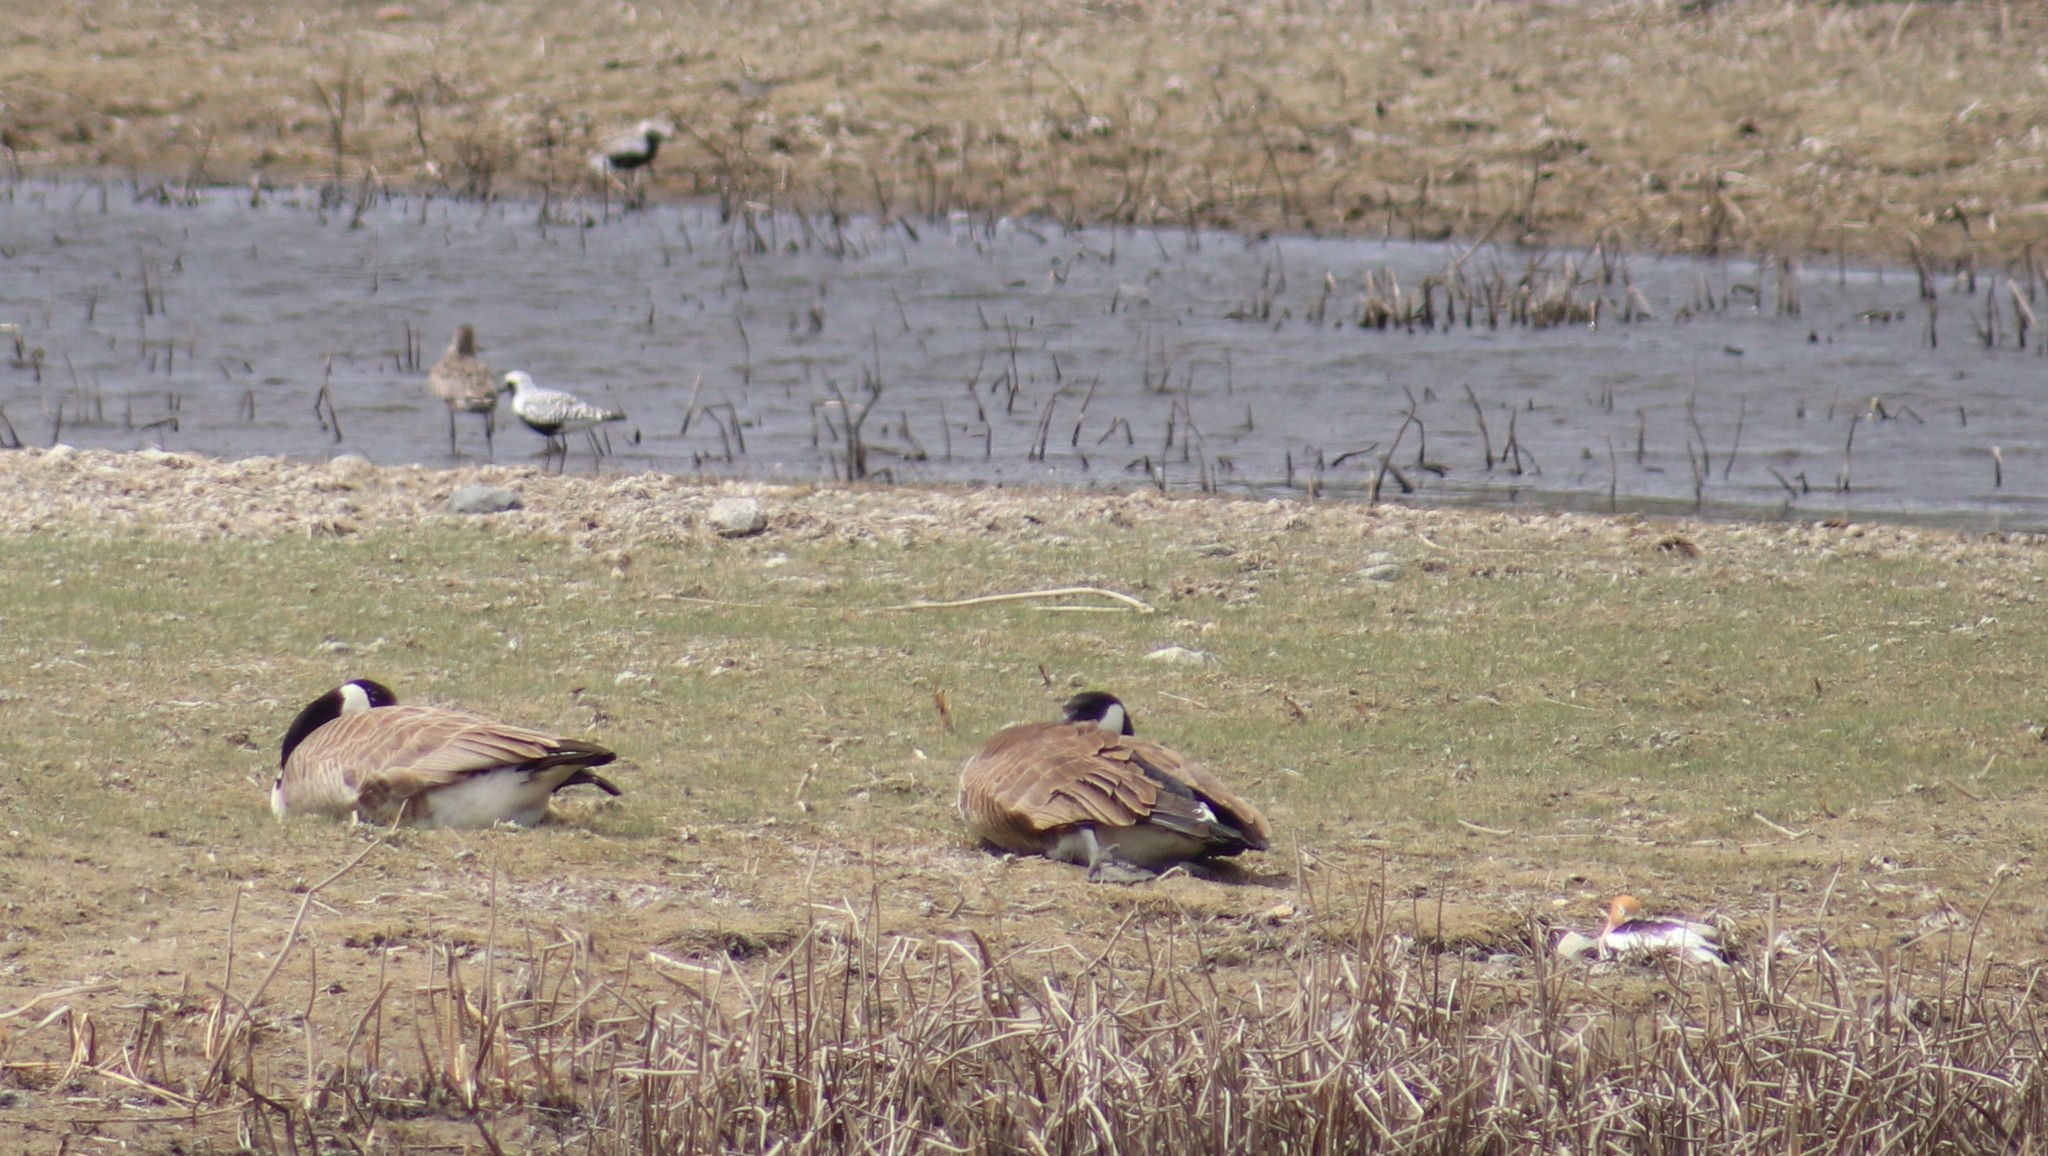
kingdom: Animalia
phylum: Chordata
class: Aves
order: Charadriiformes
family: Recurvirostridae
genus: Recurvirostra
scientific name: Recurvirostra americana
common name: American avocet
